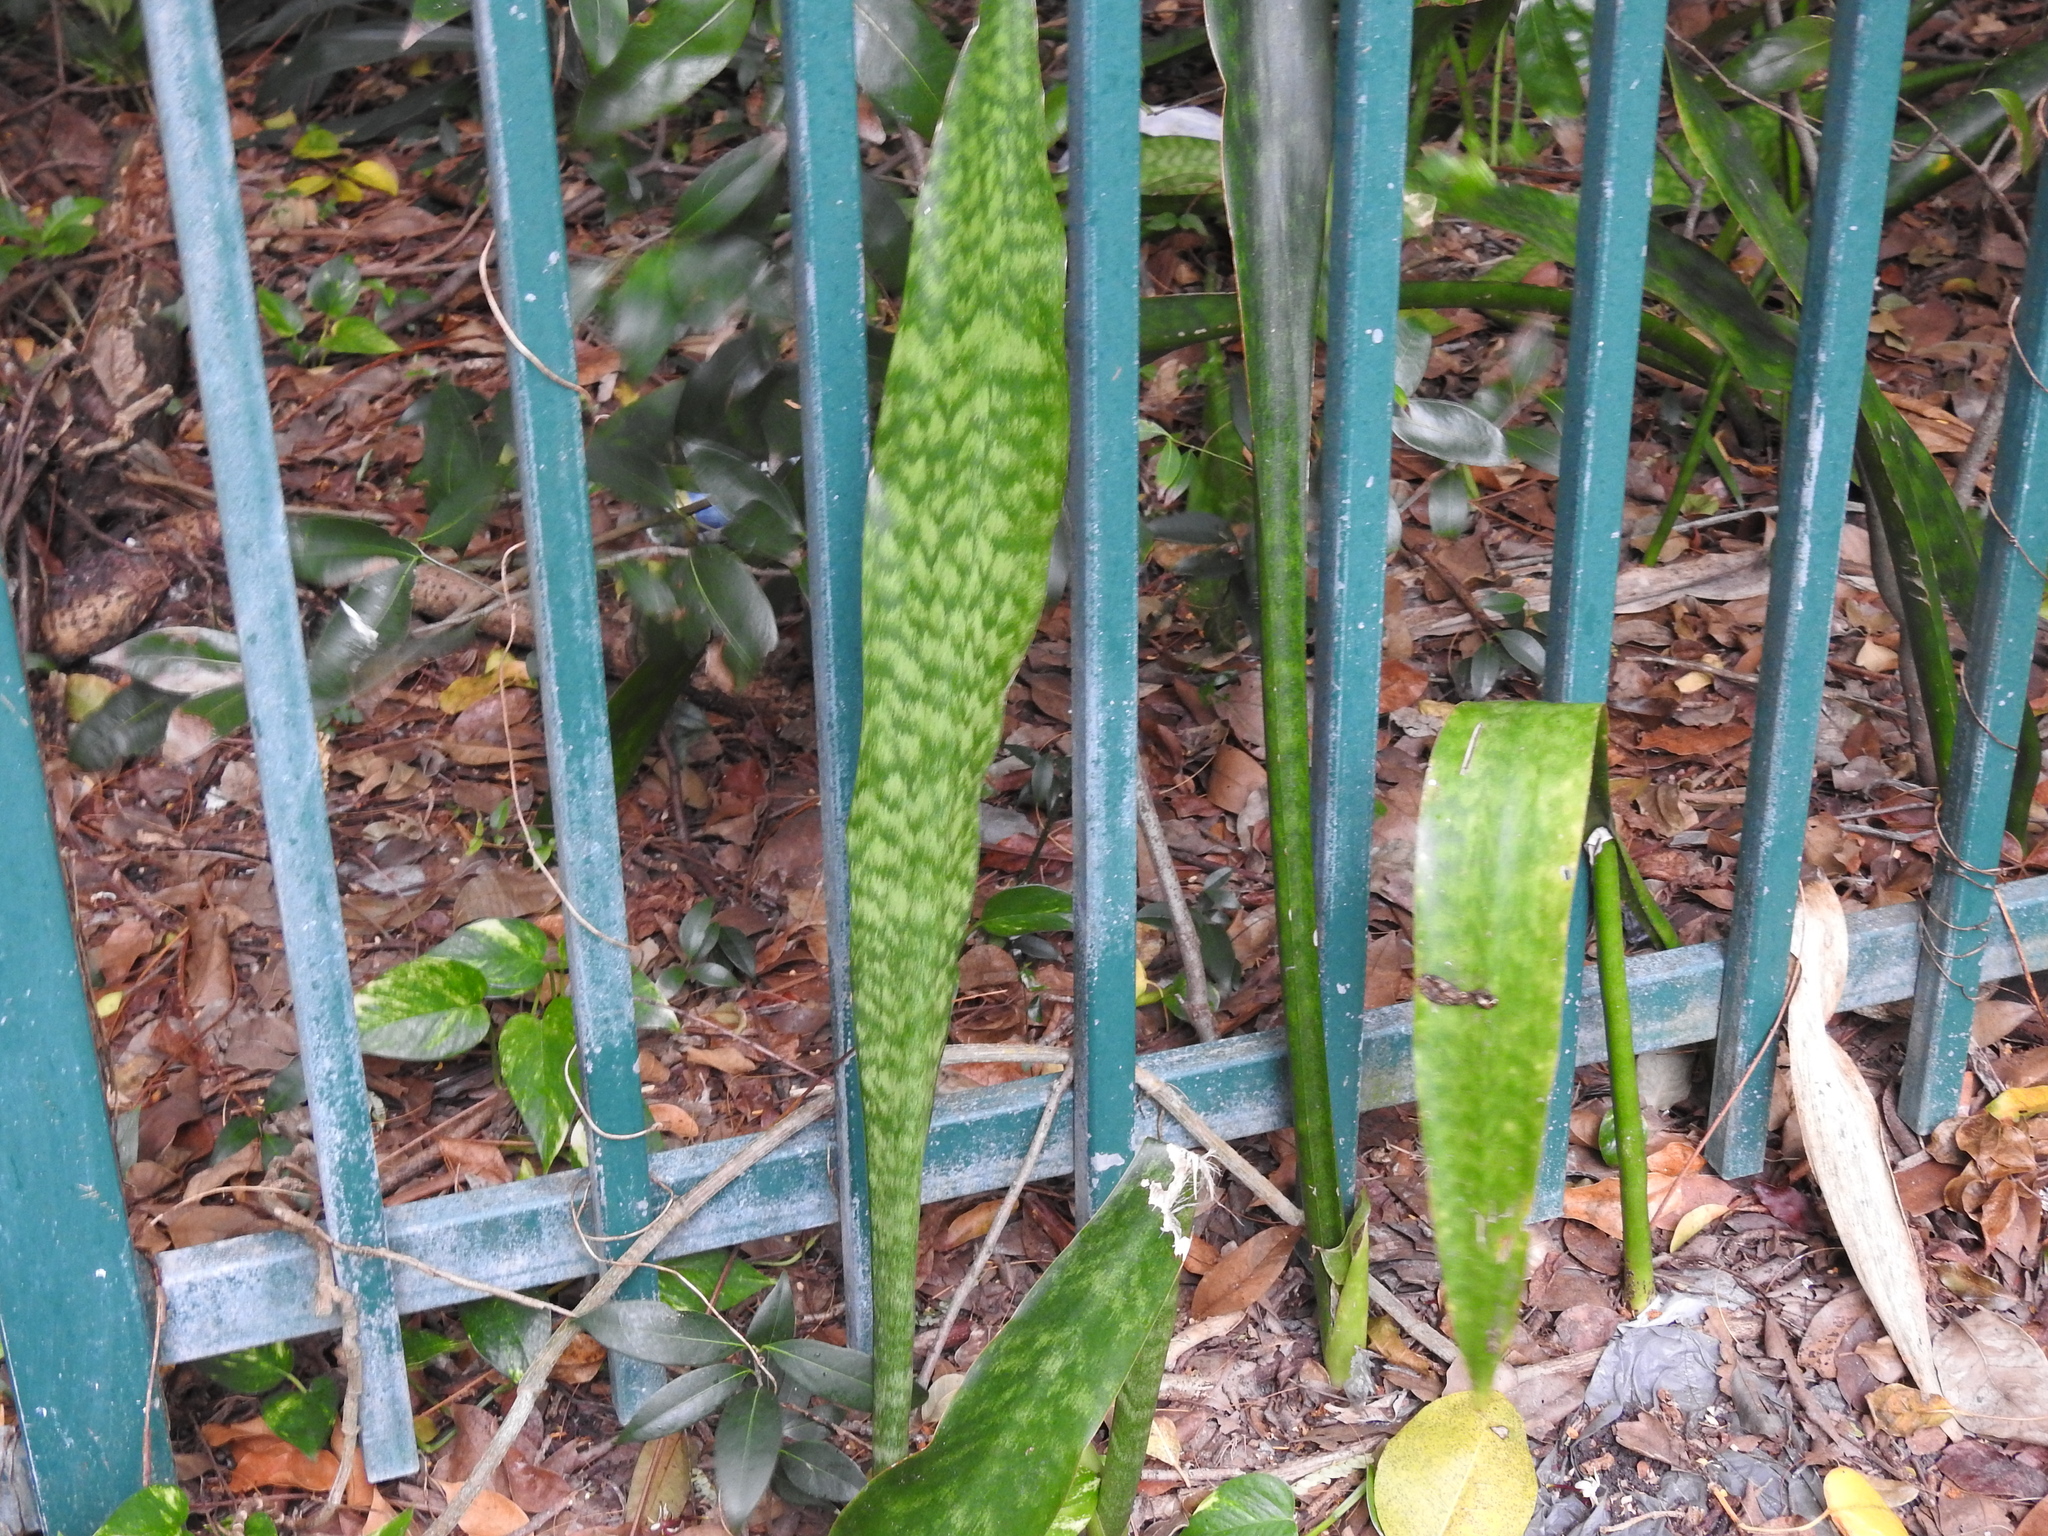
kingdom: Plantae
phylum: Tracheophyta
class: Liliopsida
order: Asparagales
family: Asparagaceae
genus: Dracaena
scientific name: Dracaena hyacinthoides
